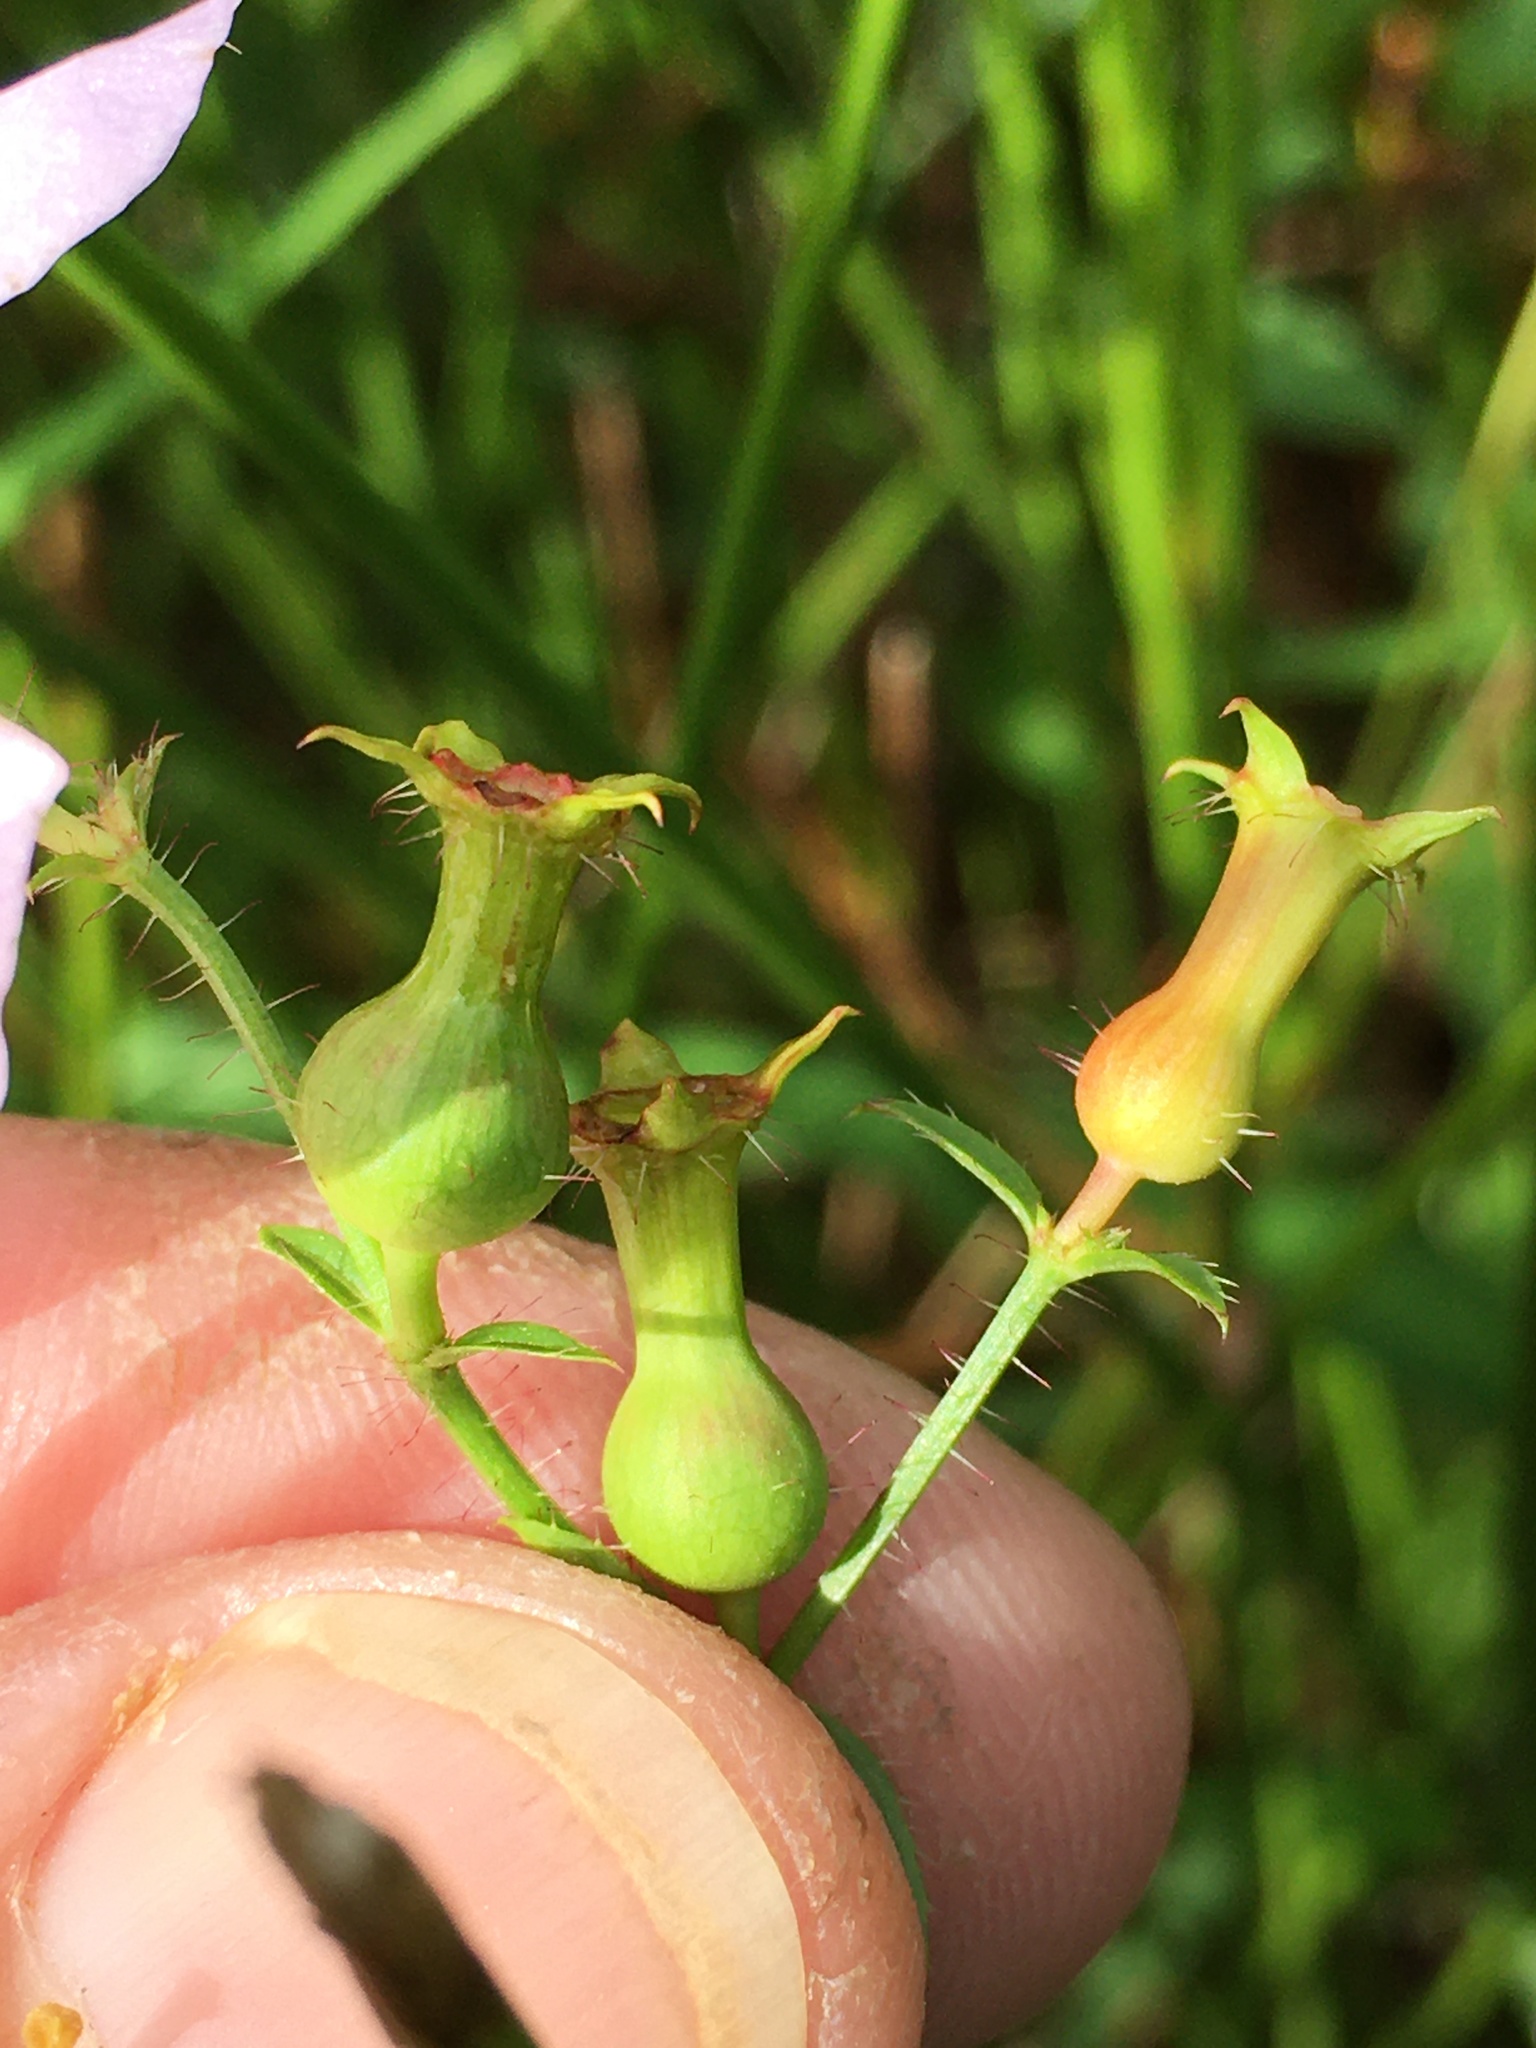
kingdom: Plantae
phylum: Tracheophyta
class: Magnoliopsida
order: Myrtales
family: Melastomataceae
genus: Rhexia
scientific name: Rhexia mariana
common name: Dull meadow-pitcher
